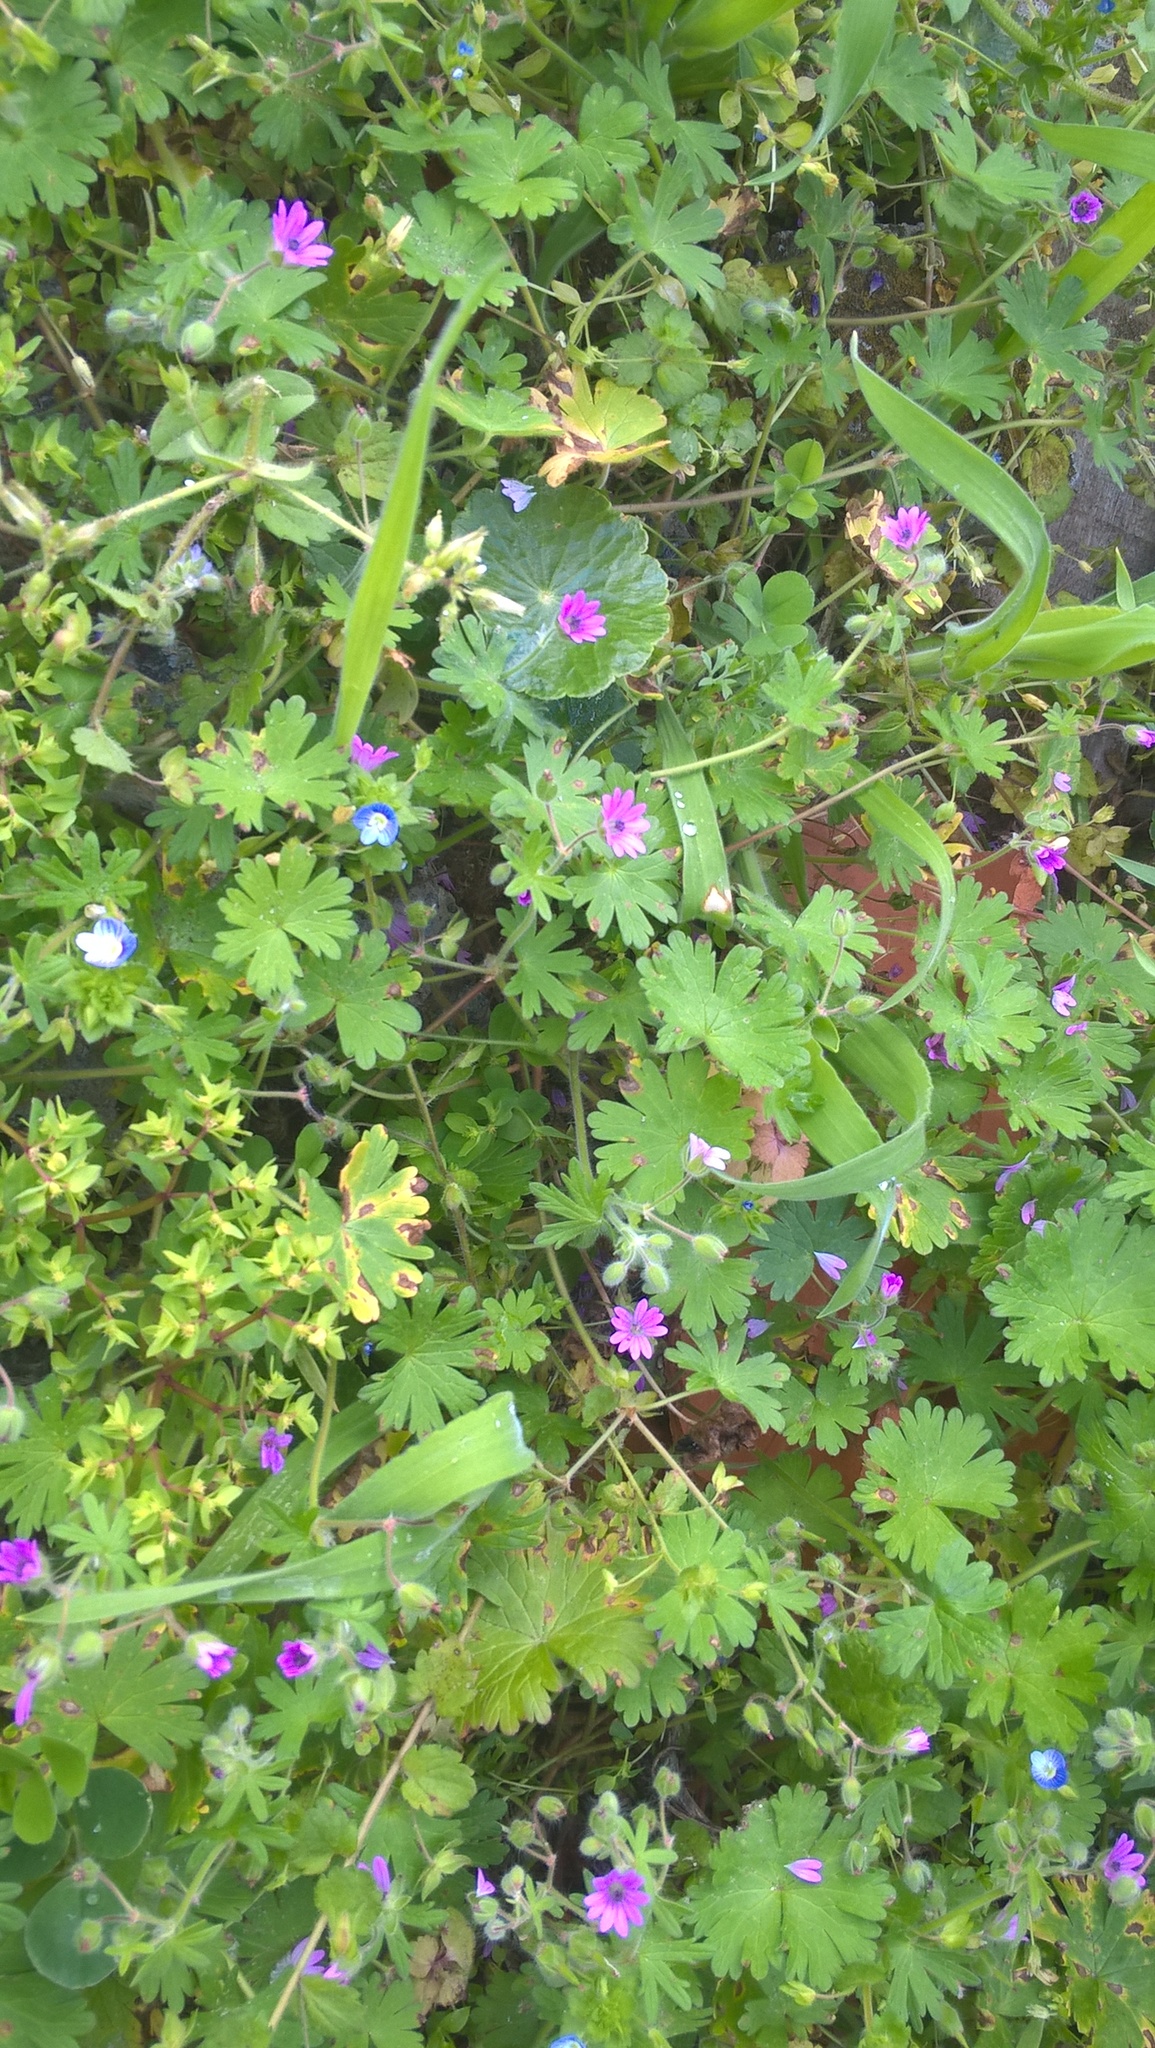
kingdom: Plantae
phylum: Tracheophyta
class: Magnoliopsida
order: Geraniales
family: Geraniaceae
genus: Geranium
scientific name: Geranium pusillum
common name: Small geranium
